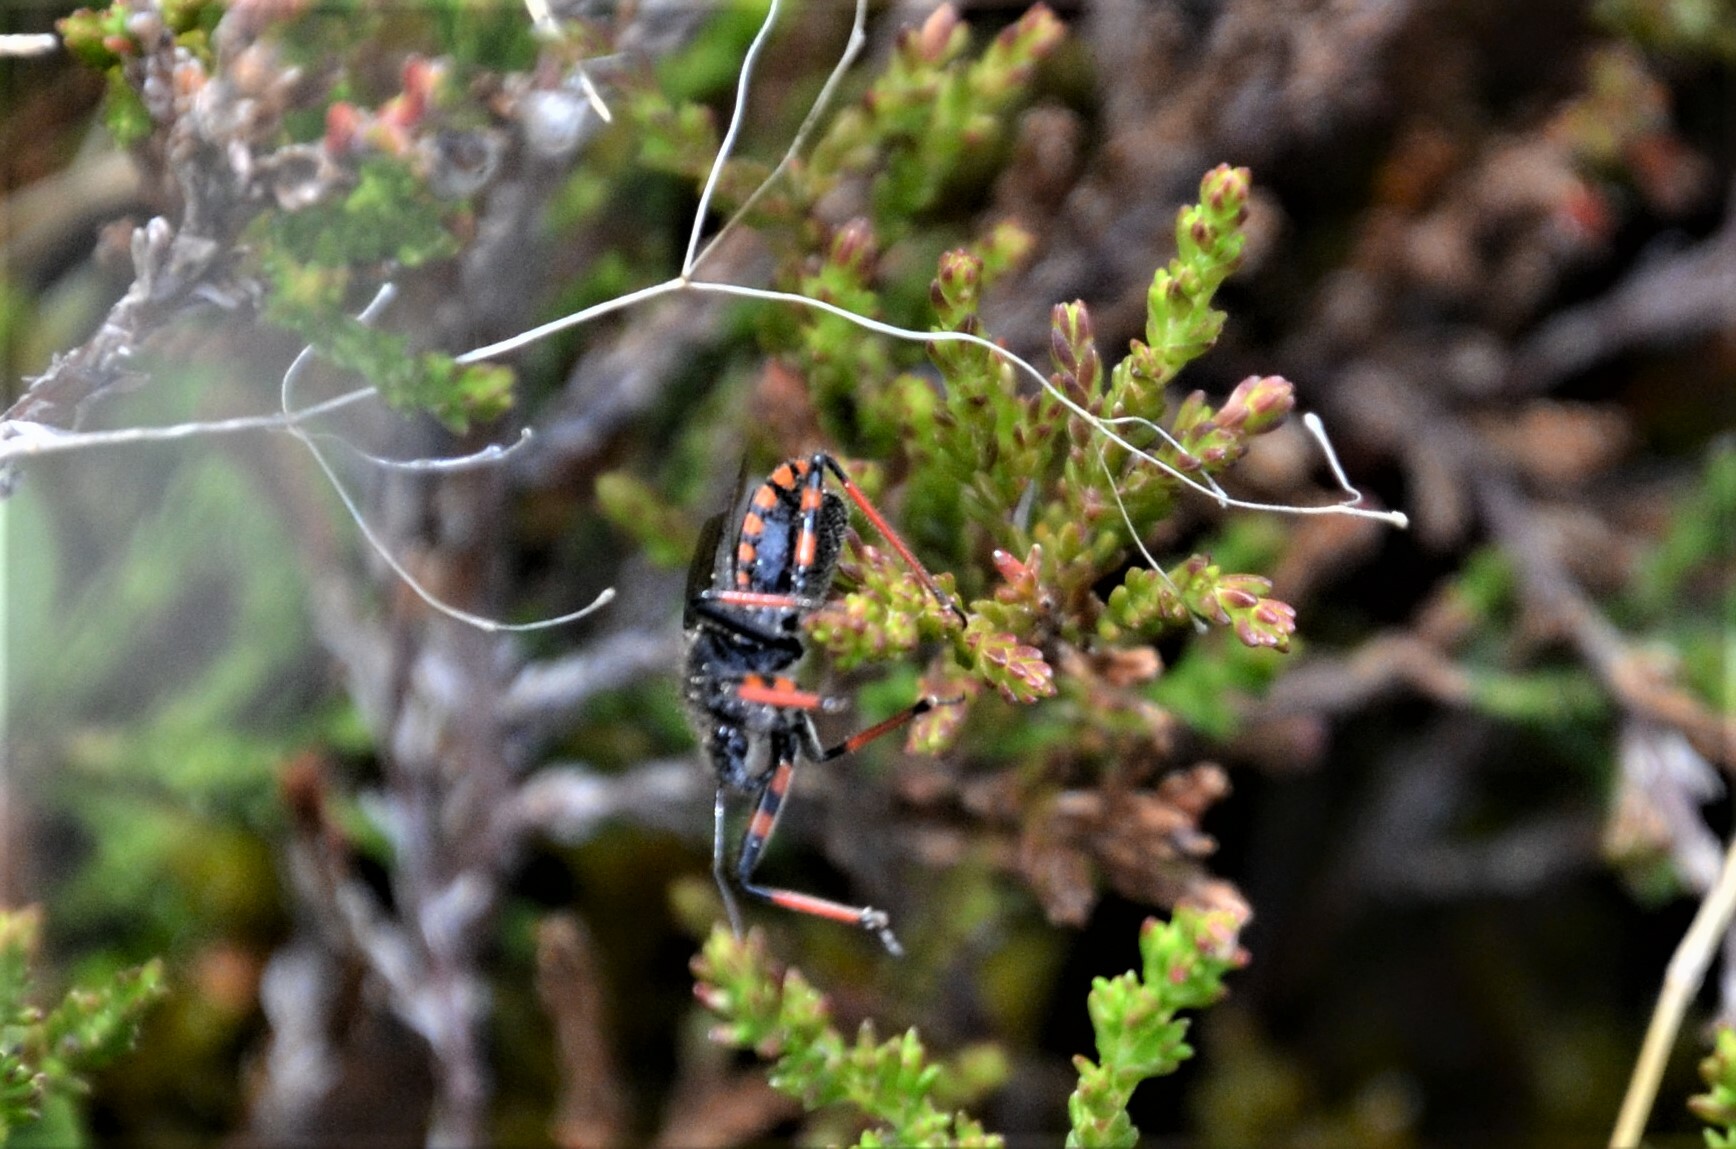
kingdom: Animalia
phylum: Arthropoda
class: Insecta
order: Hemiptera
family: Reduviidae
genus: Rhynocoris
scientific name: Rhynocoris annulatus
